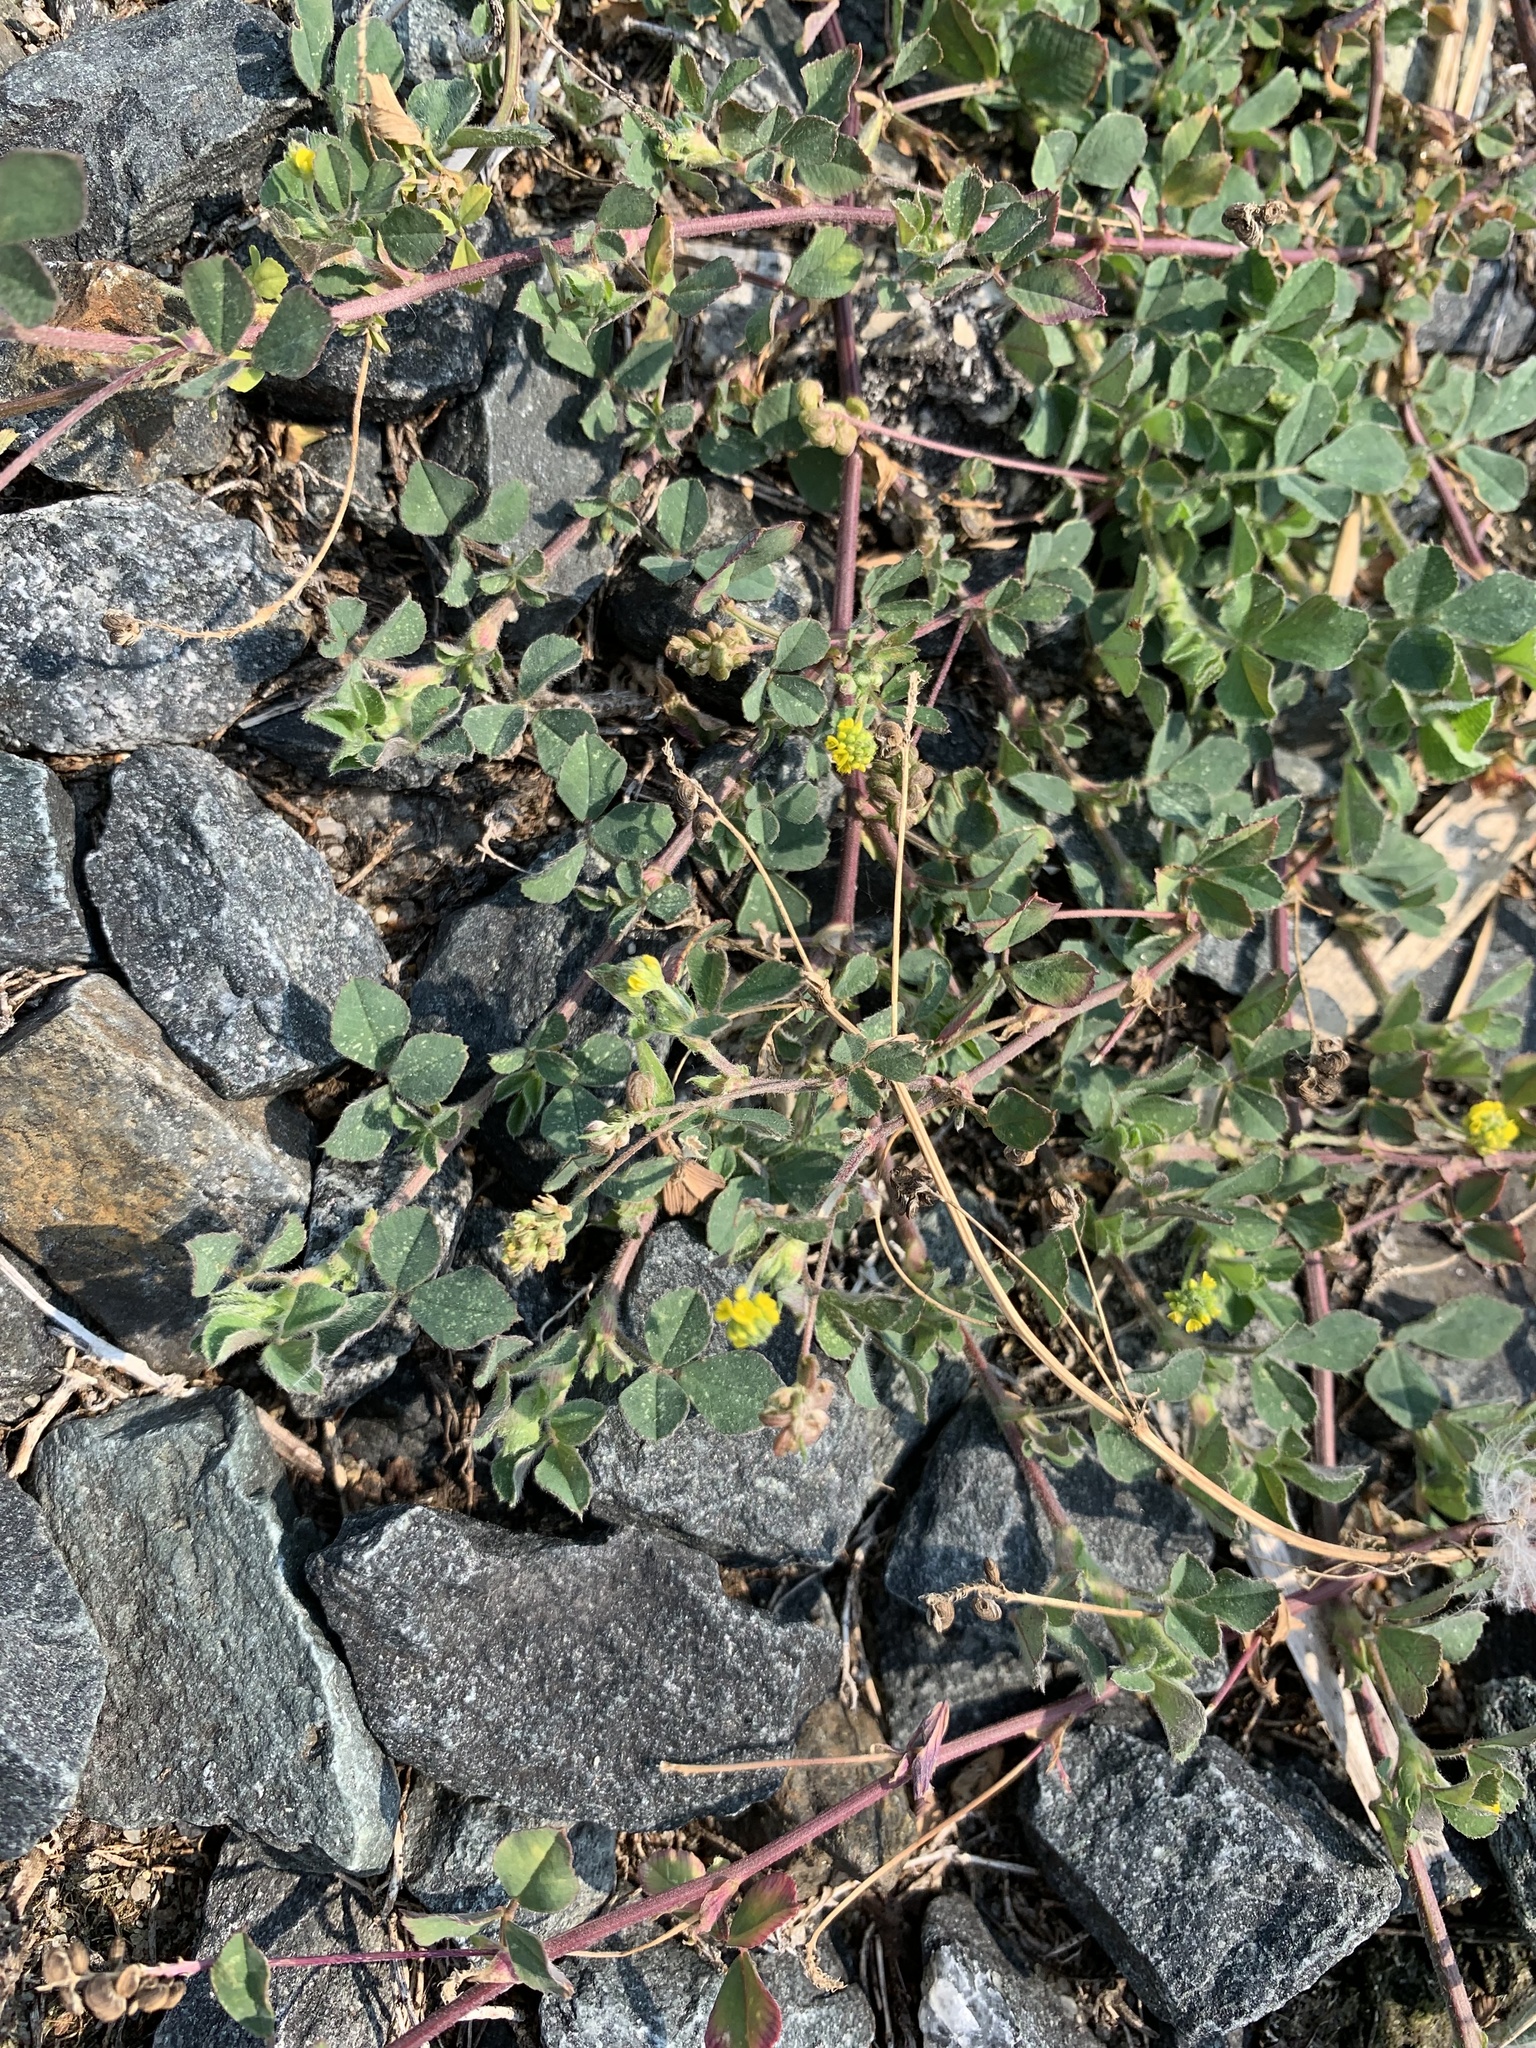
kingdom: Plantae
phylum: Tracheophyta
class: Magnoliopsida
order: Fabales
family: Fabaceae
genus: Medicago
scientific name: Medicago lupulina
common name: Black medick
